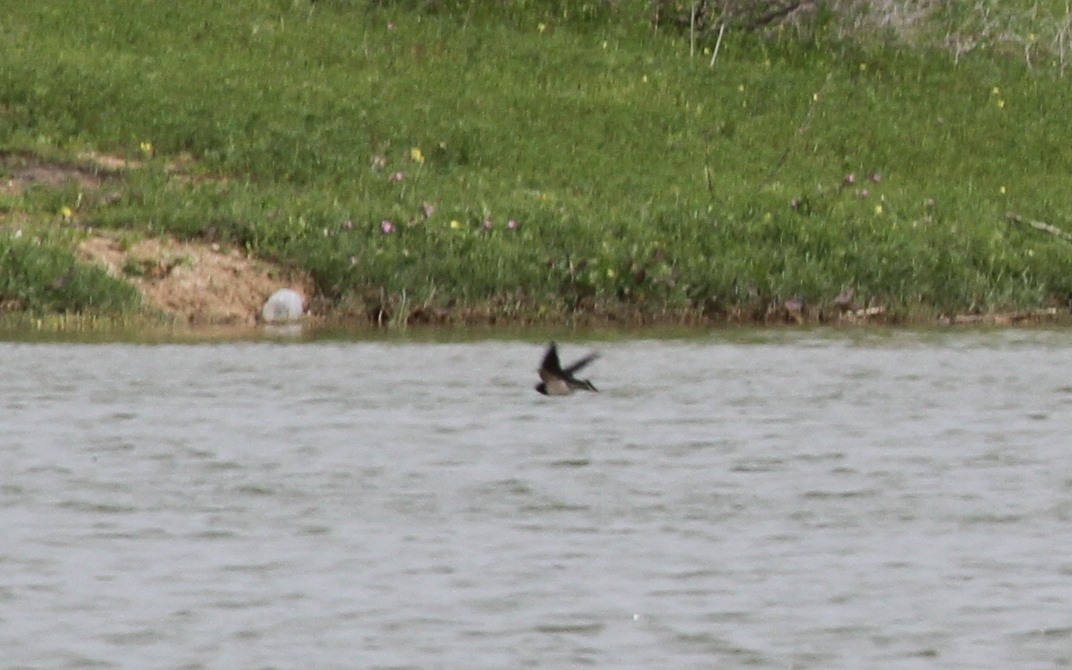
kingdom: Animalia
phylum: Chordata
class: Aves
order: Passeriformes
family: Hirundinidae
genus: Hirundo
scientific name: Hirundo rustica
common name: Barn swallow
